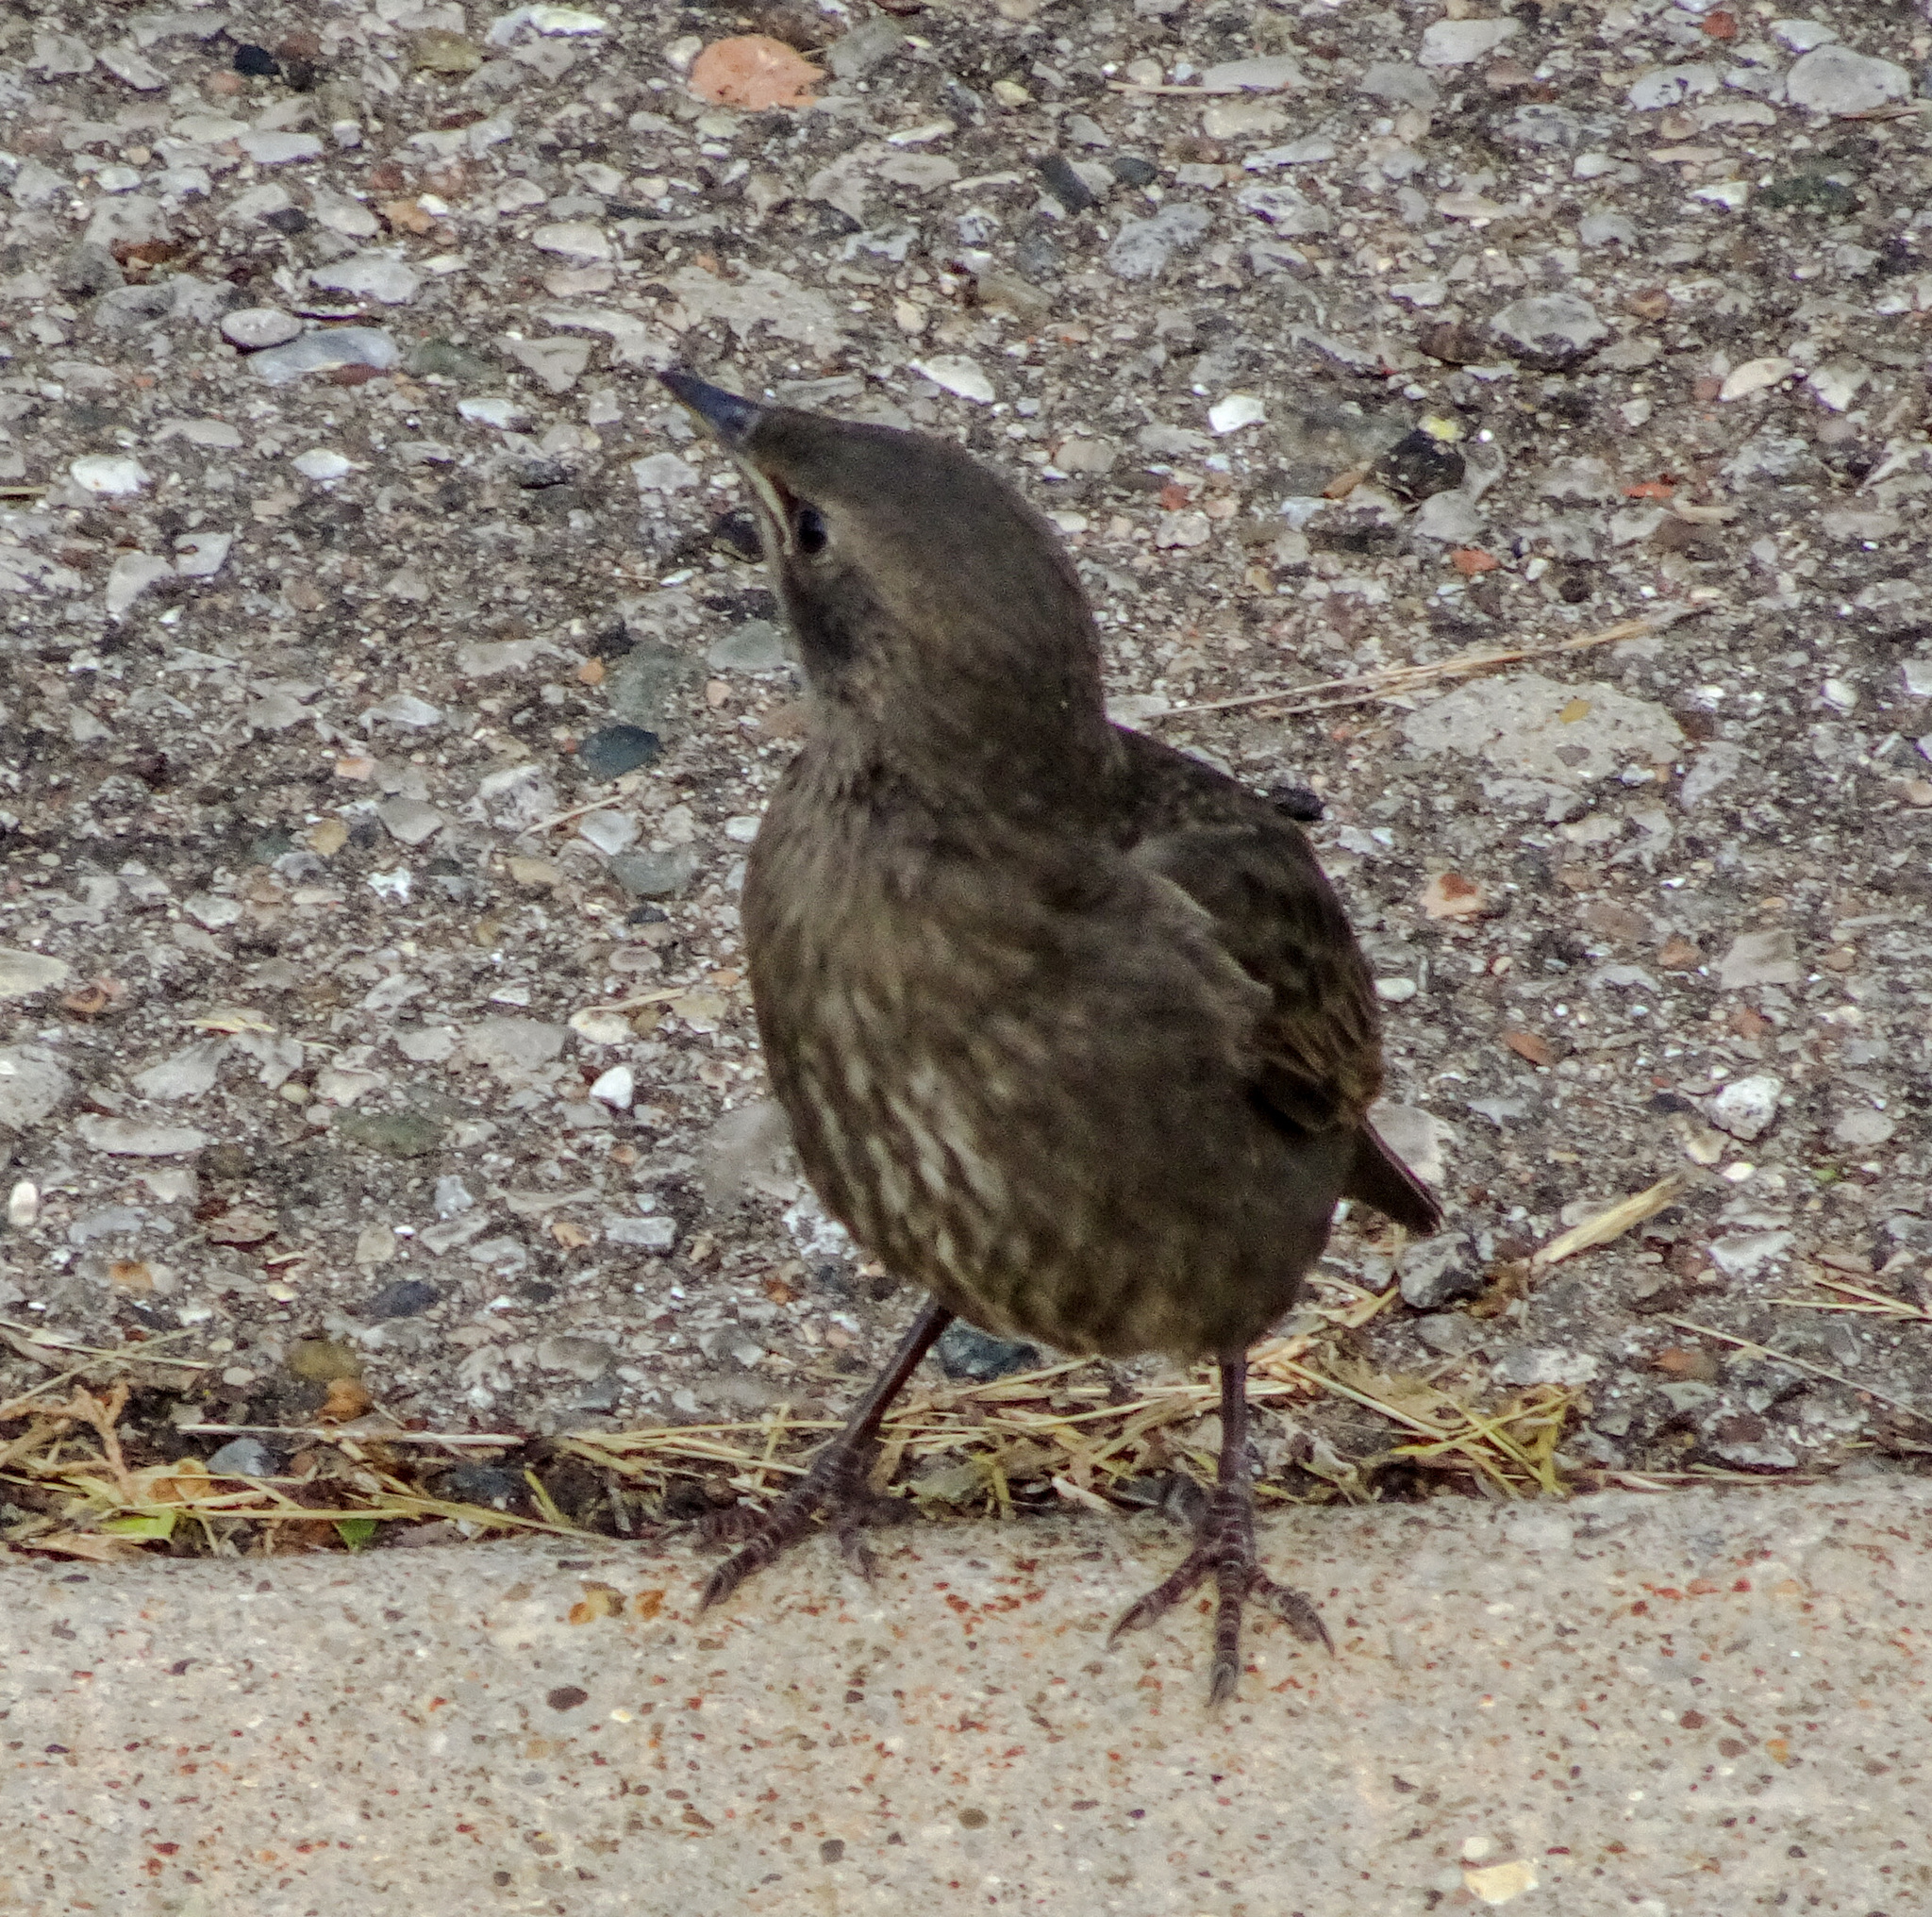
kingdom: Animalia
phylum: Chordata
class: Aves
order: Passeriformes
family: Sturnidae
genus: Sturnus
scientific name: Sturnus vulgaris
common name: Common starling
